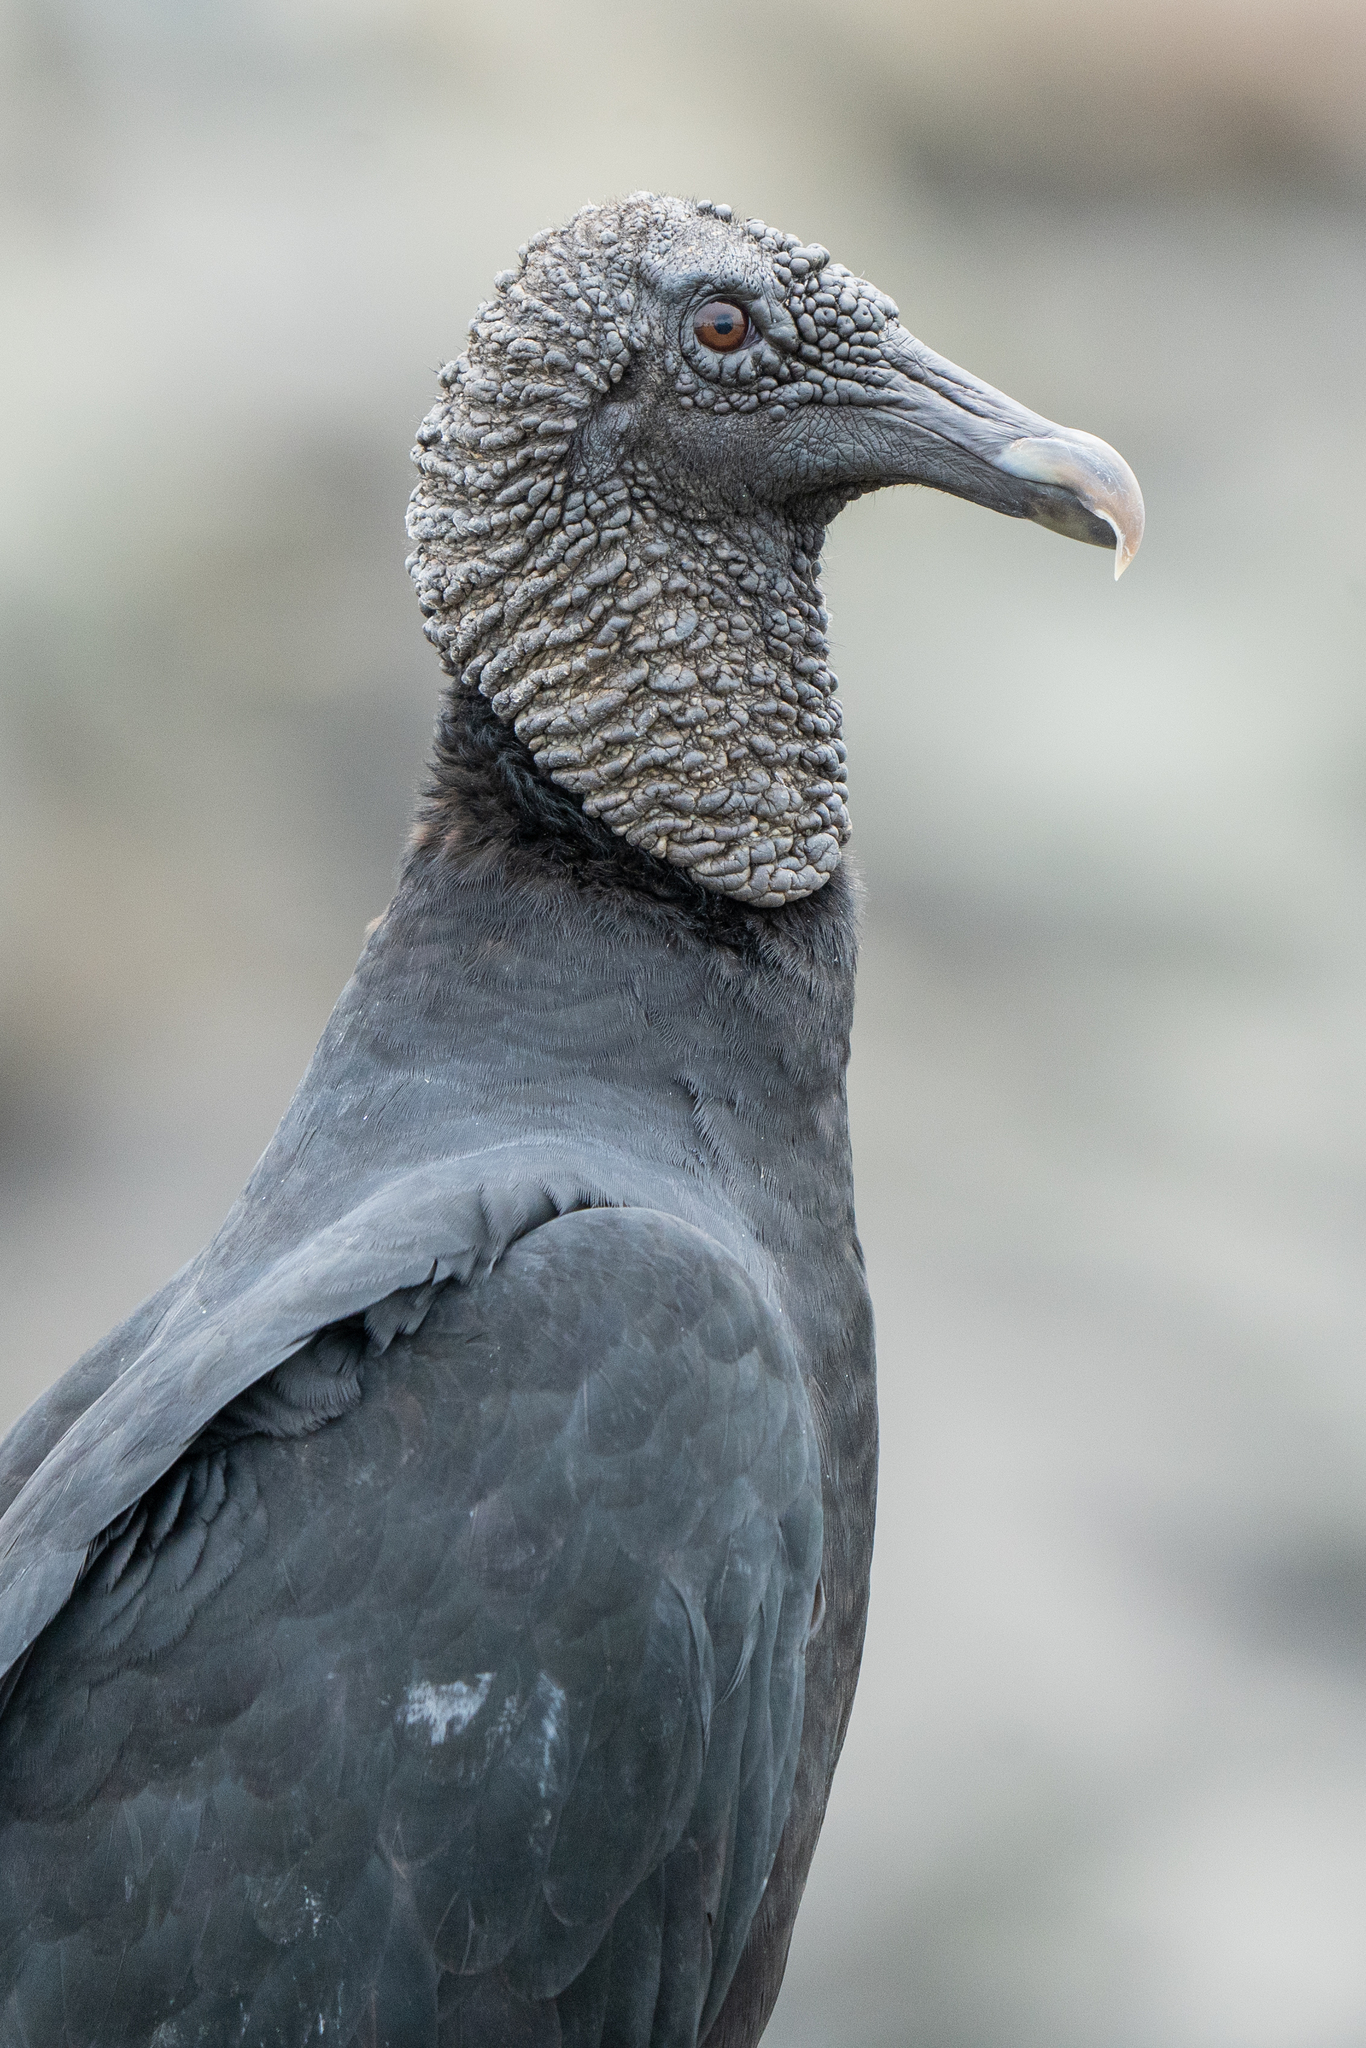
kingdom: Animalia
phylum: Chordata
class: Aves
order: Accipitriformes
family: Cathartidae
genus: Coragyps
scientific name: Coragyps atratus
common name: Black vulture
